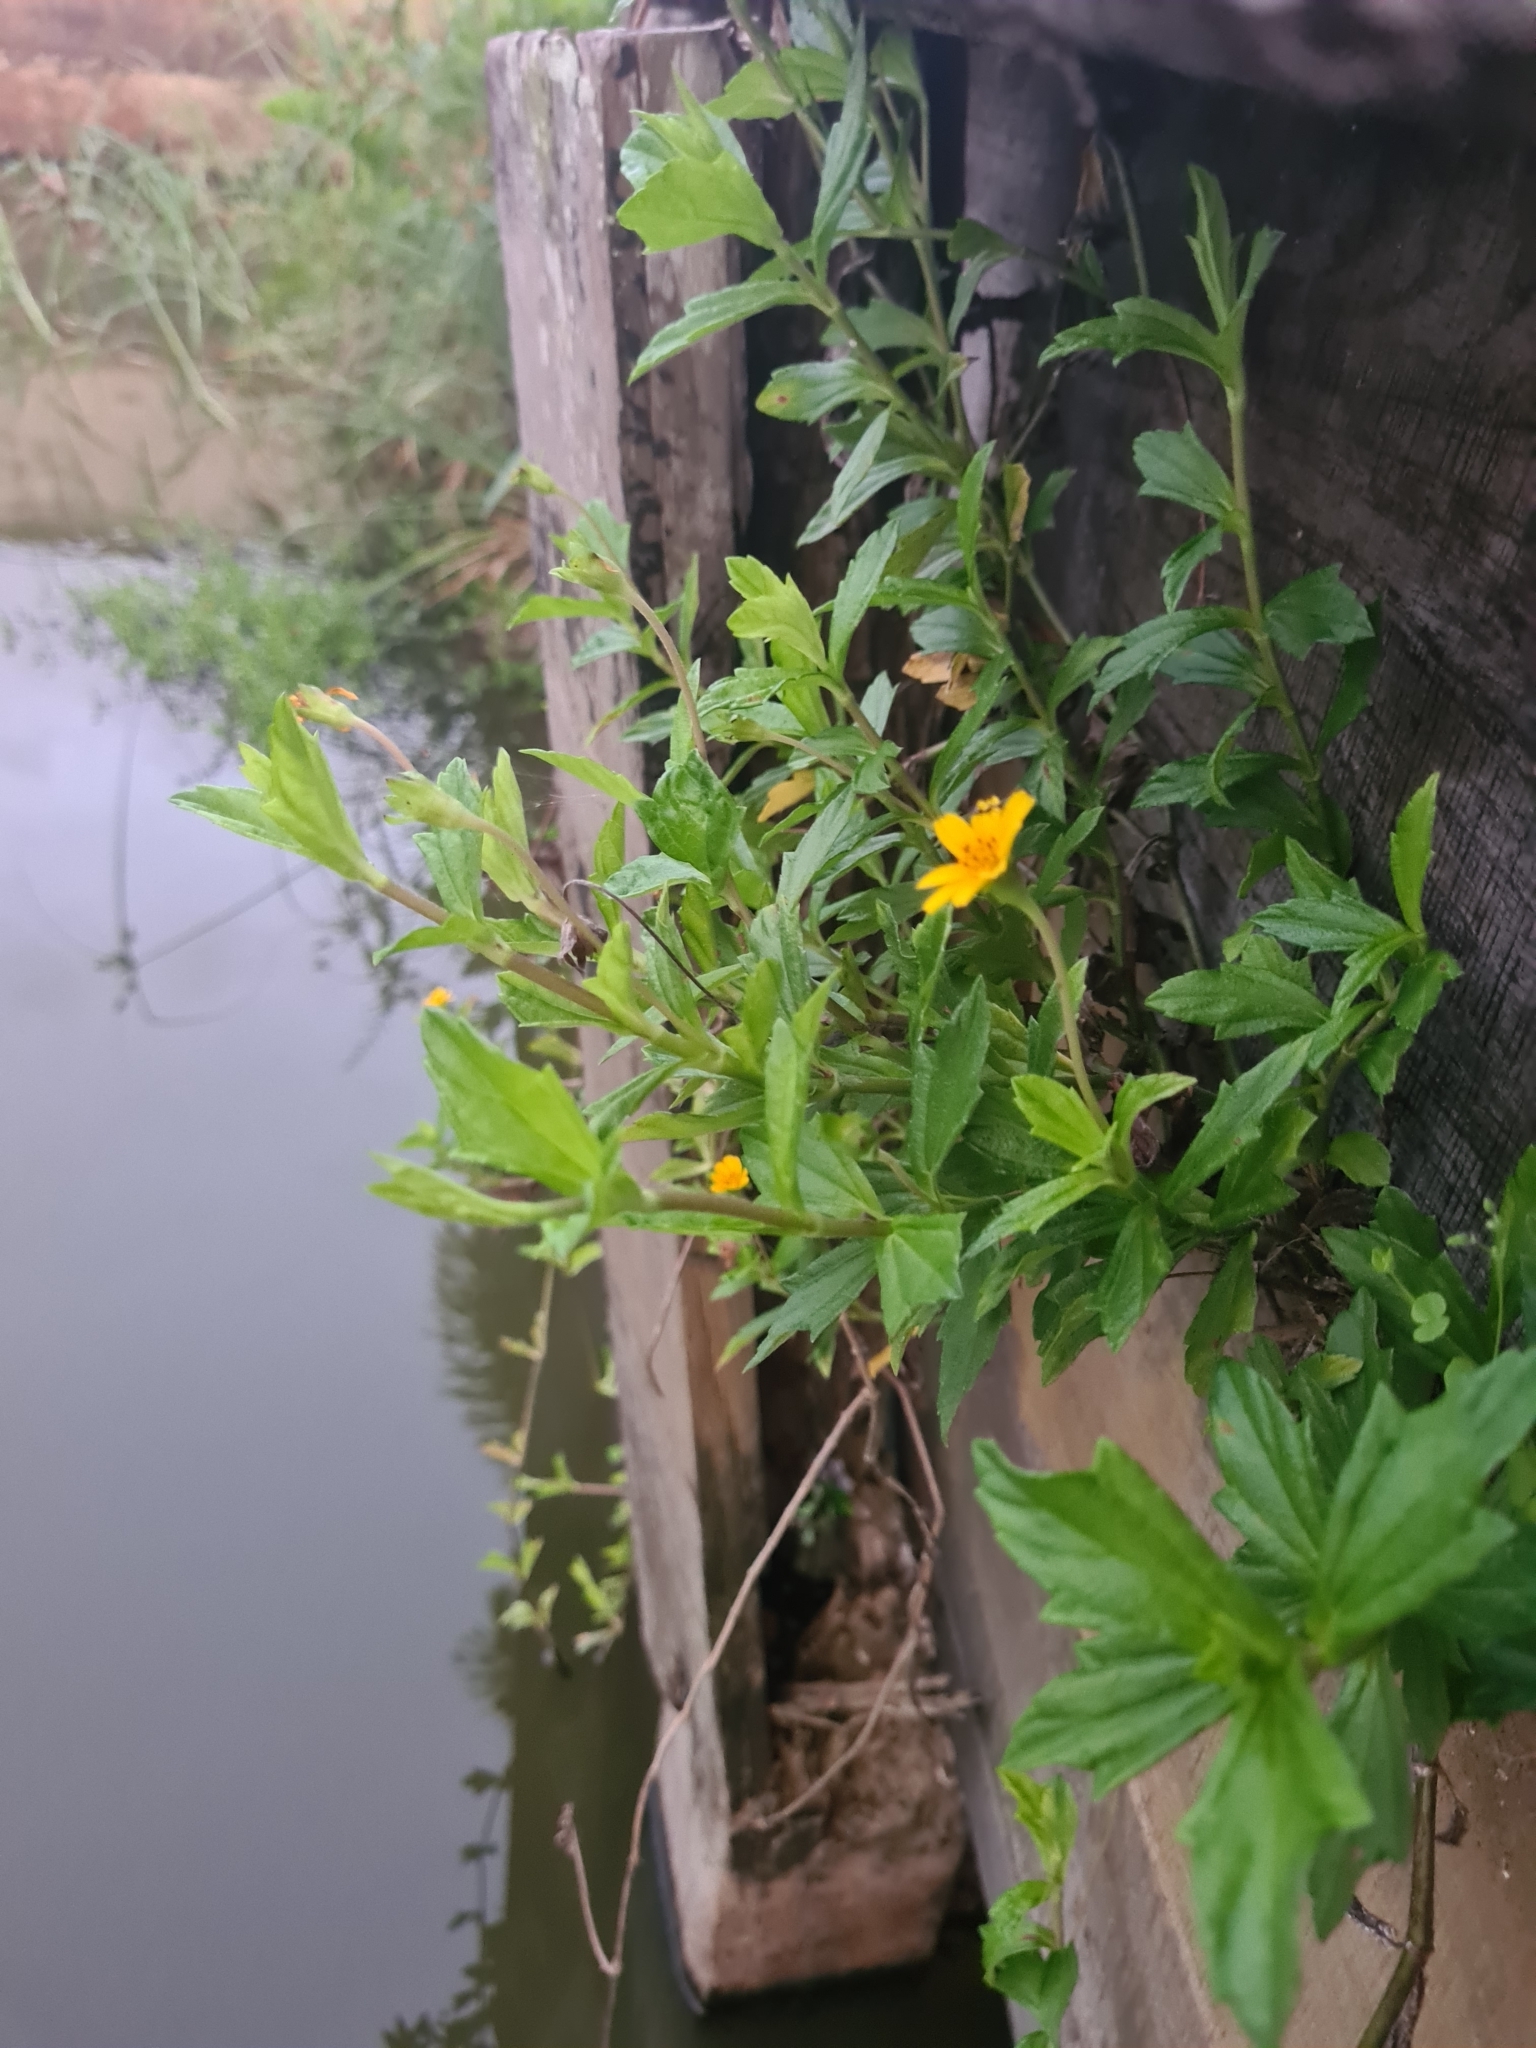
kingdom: Plantae
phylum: Tracheophyta
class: Magnoliopsida
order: Asterales
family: Asteraceae
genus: Sphagneticola
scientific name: Sphagneticola trilobata
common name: Bay biscayne creeping-oxeye
